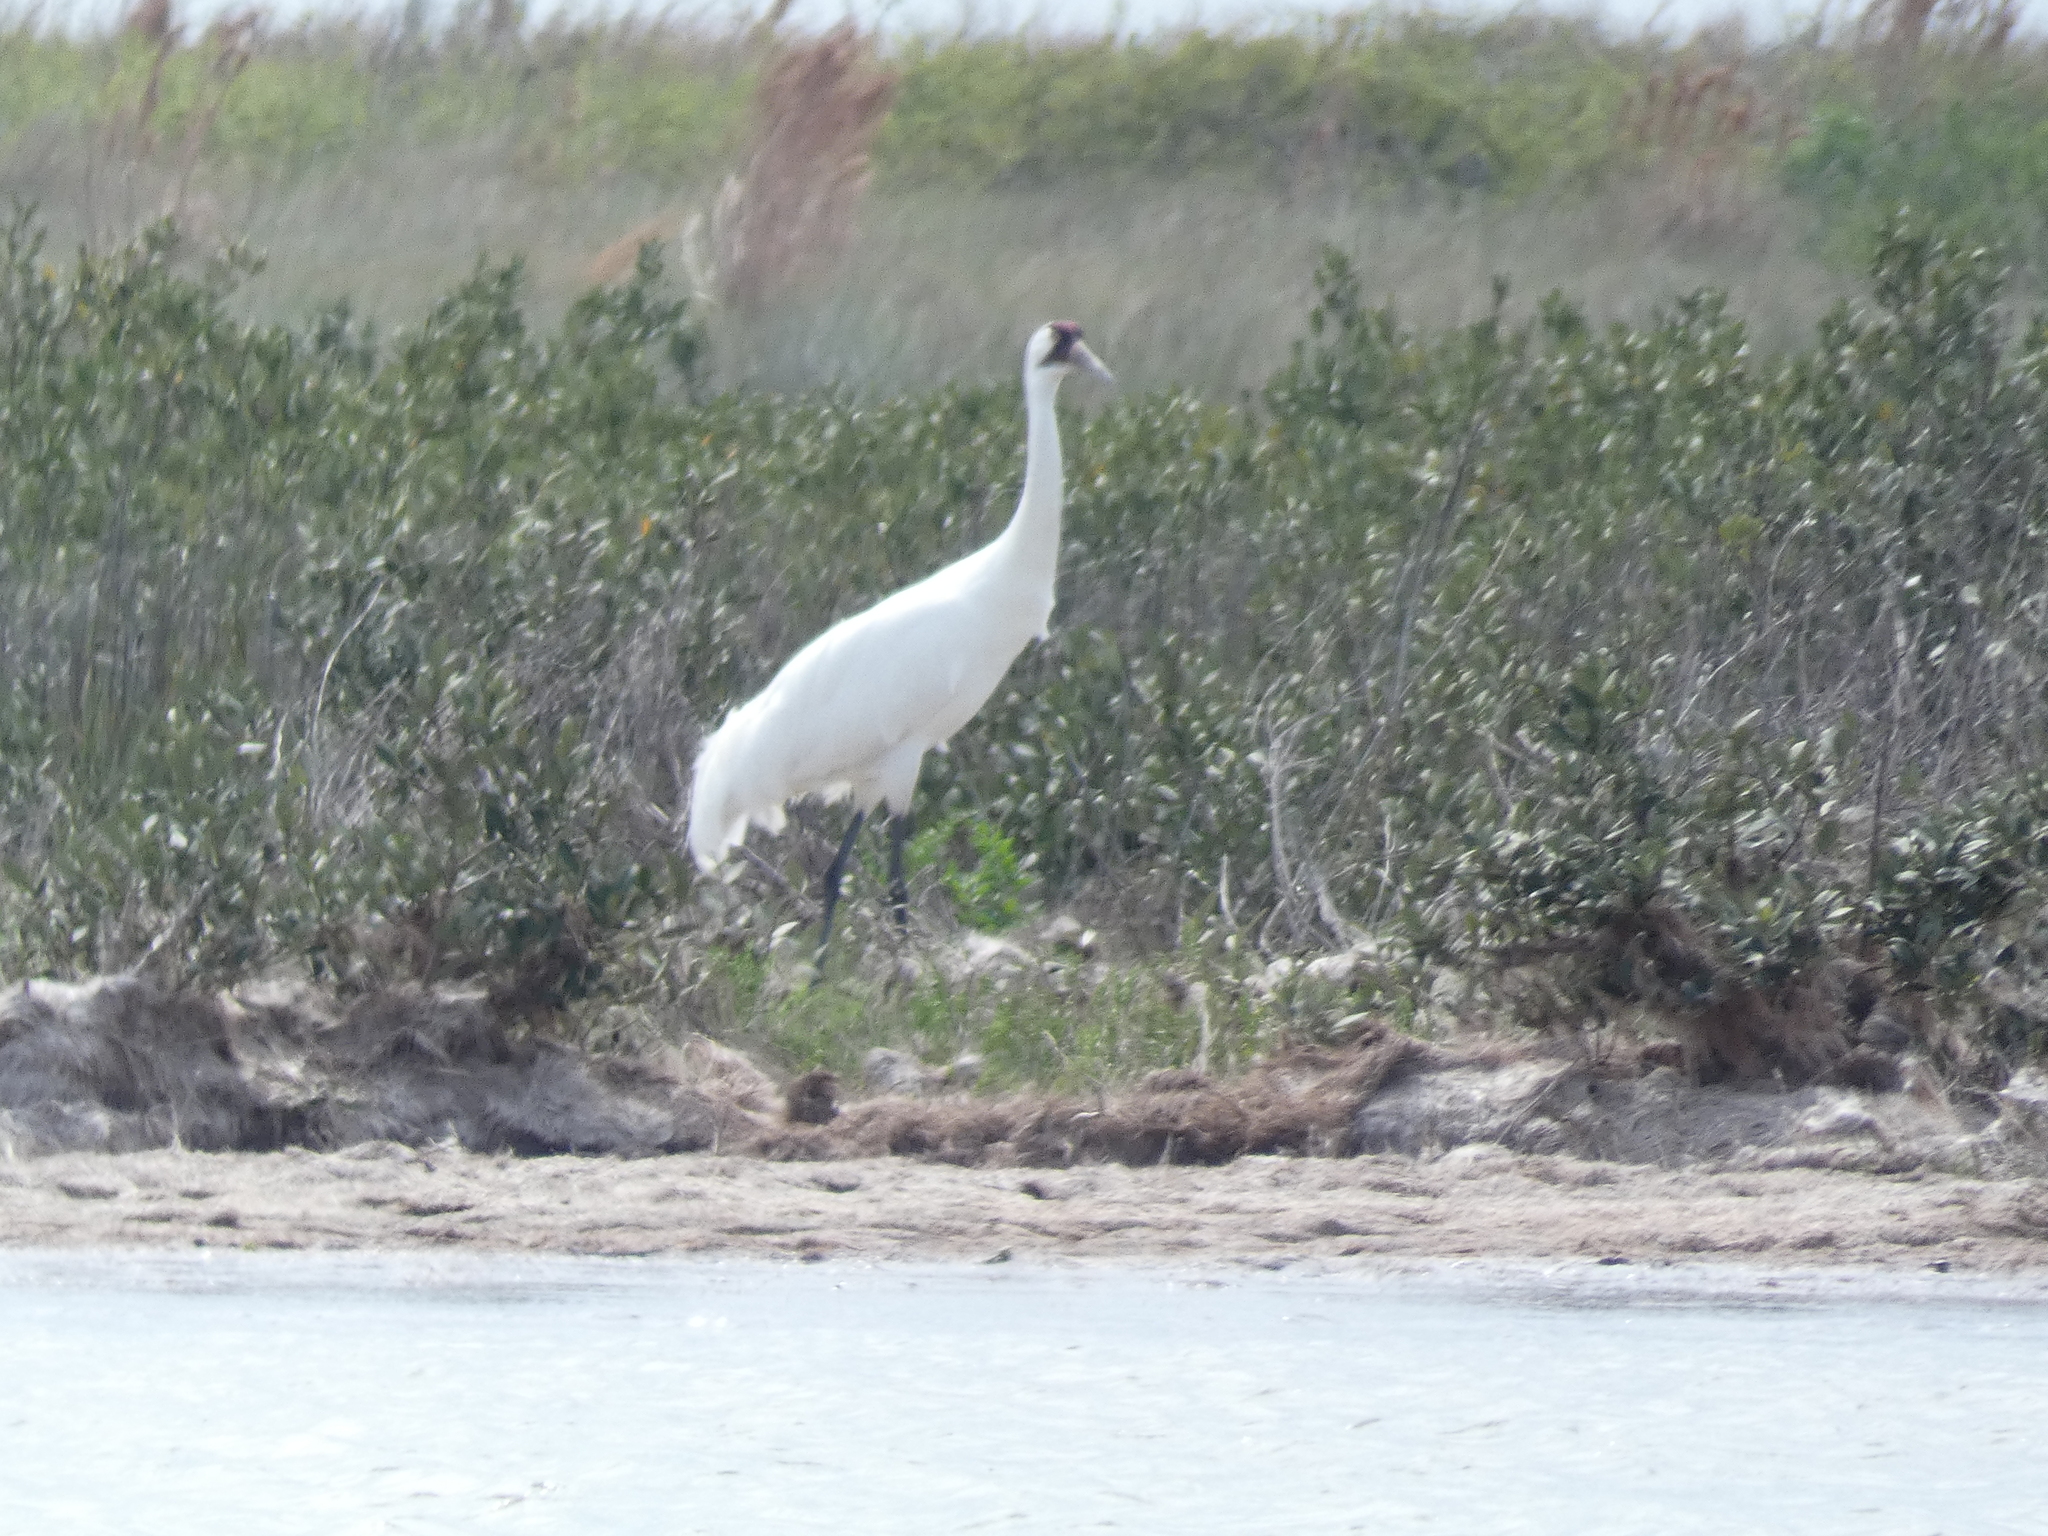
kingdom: Animalia
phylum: Chordata
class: Aves
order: Gruiformes
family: Gruidae
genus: Grus
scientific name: Grus americana
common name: Whooping crane
